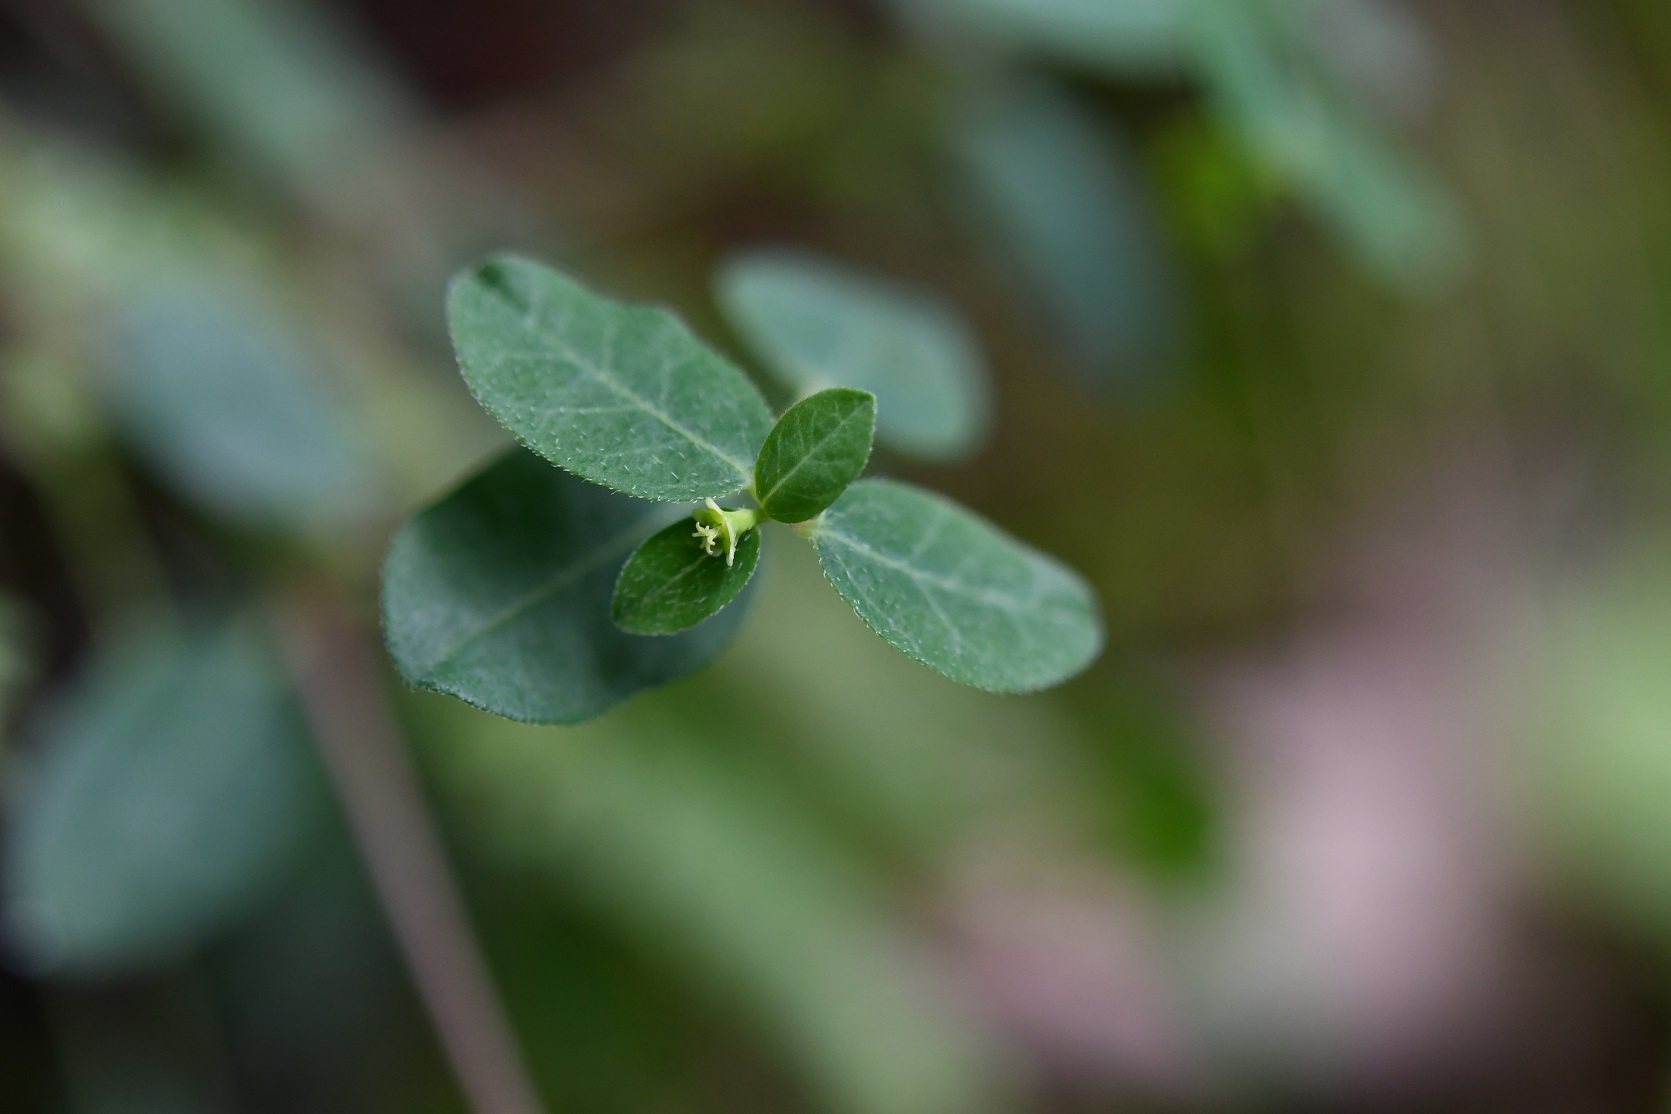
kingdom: Plantae
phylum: Tracheophyta
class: Magnoliopsida
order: Malpighiales
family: Euphorbiaceae
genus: Euphorbia
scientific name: Euphorbia macropus
